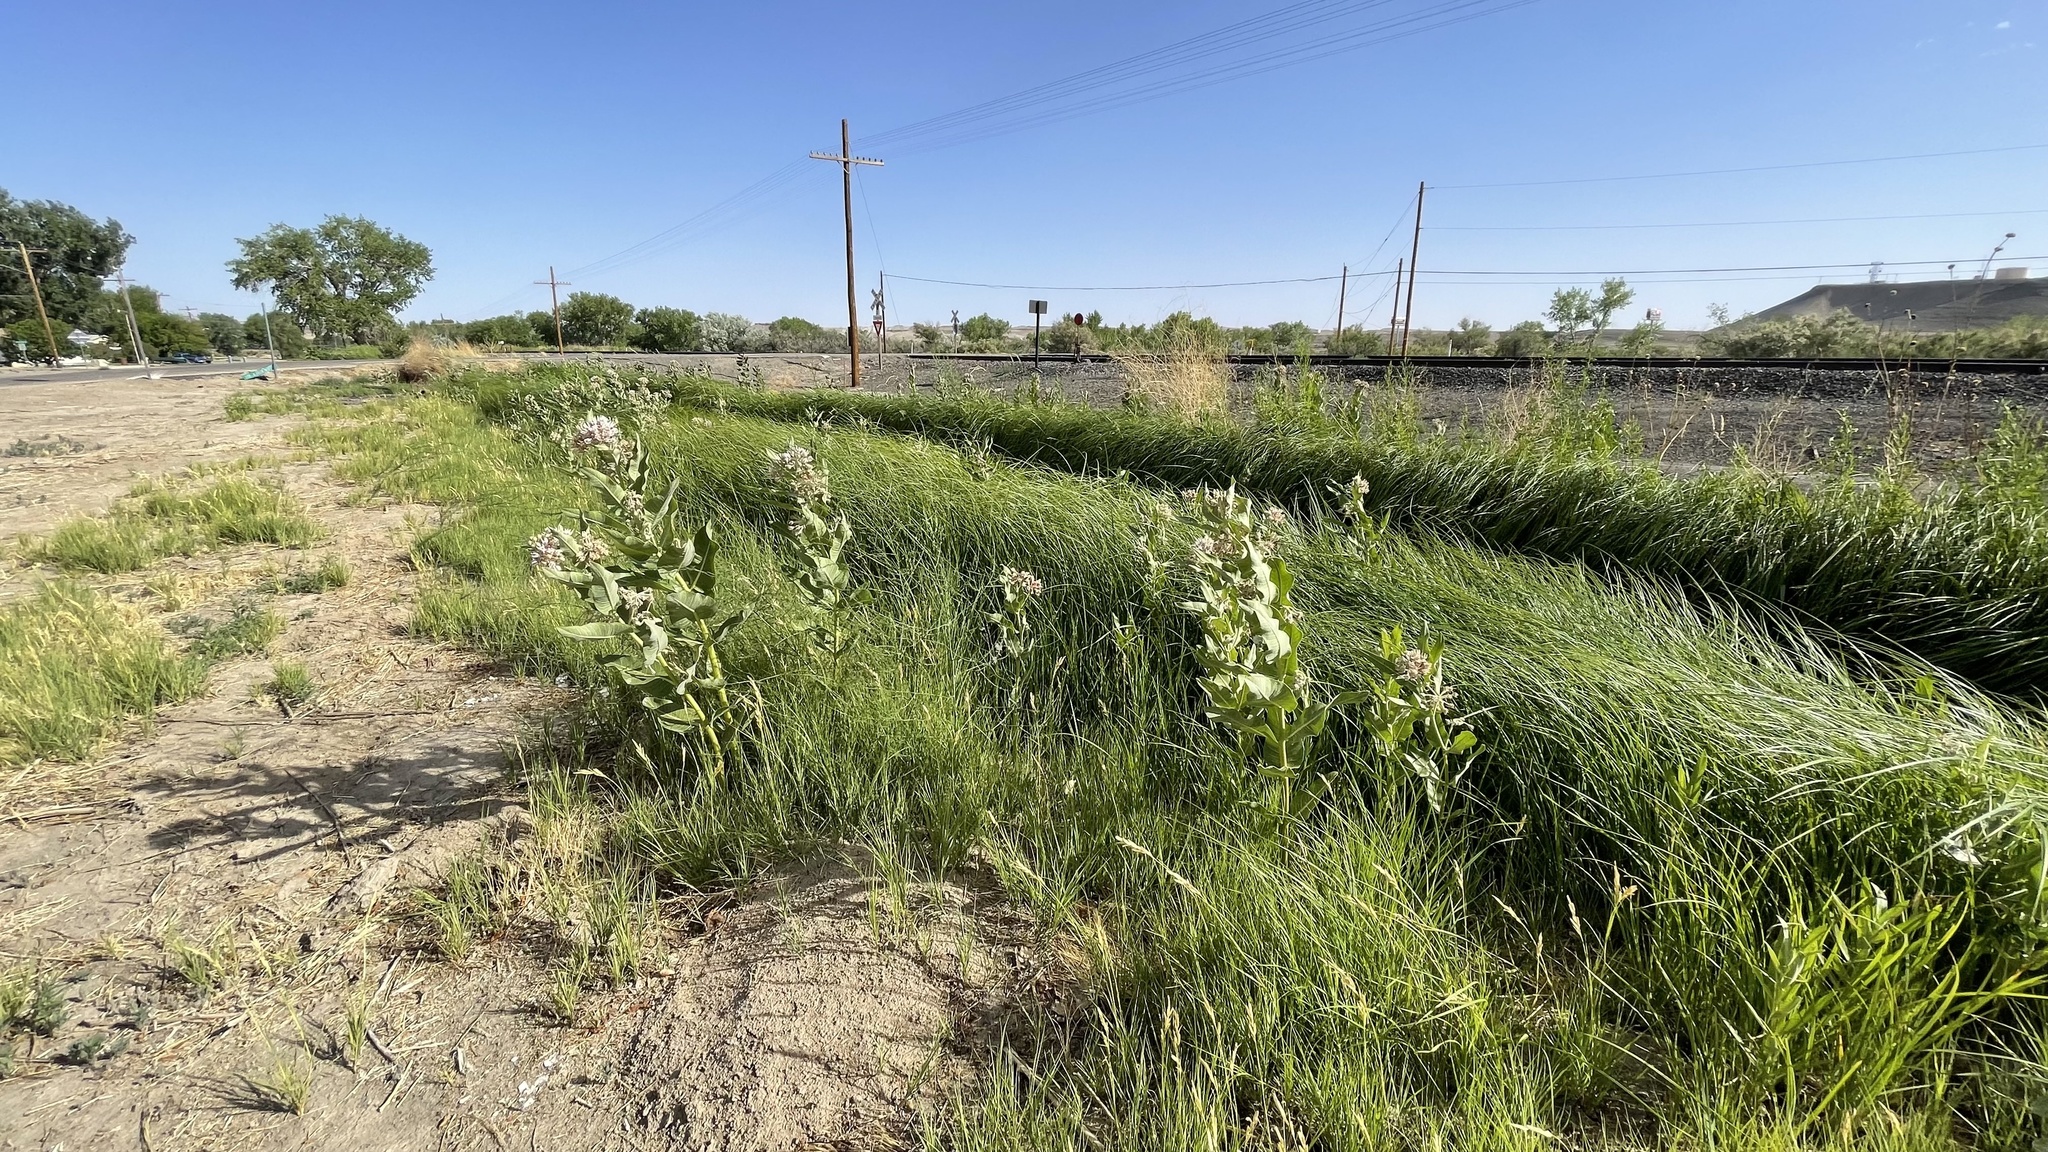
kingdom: Plantae
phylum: Tracheophyta
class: Magnoliopsida
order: Gentianales
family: Apocynaceae
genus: Asclepias
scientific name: Asclepias speciosa
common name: Showy milkweed
